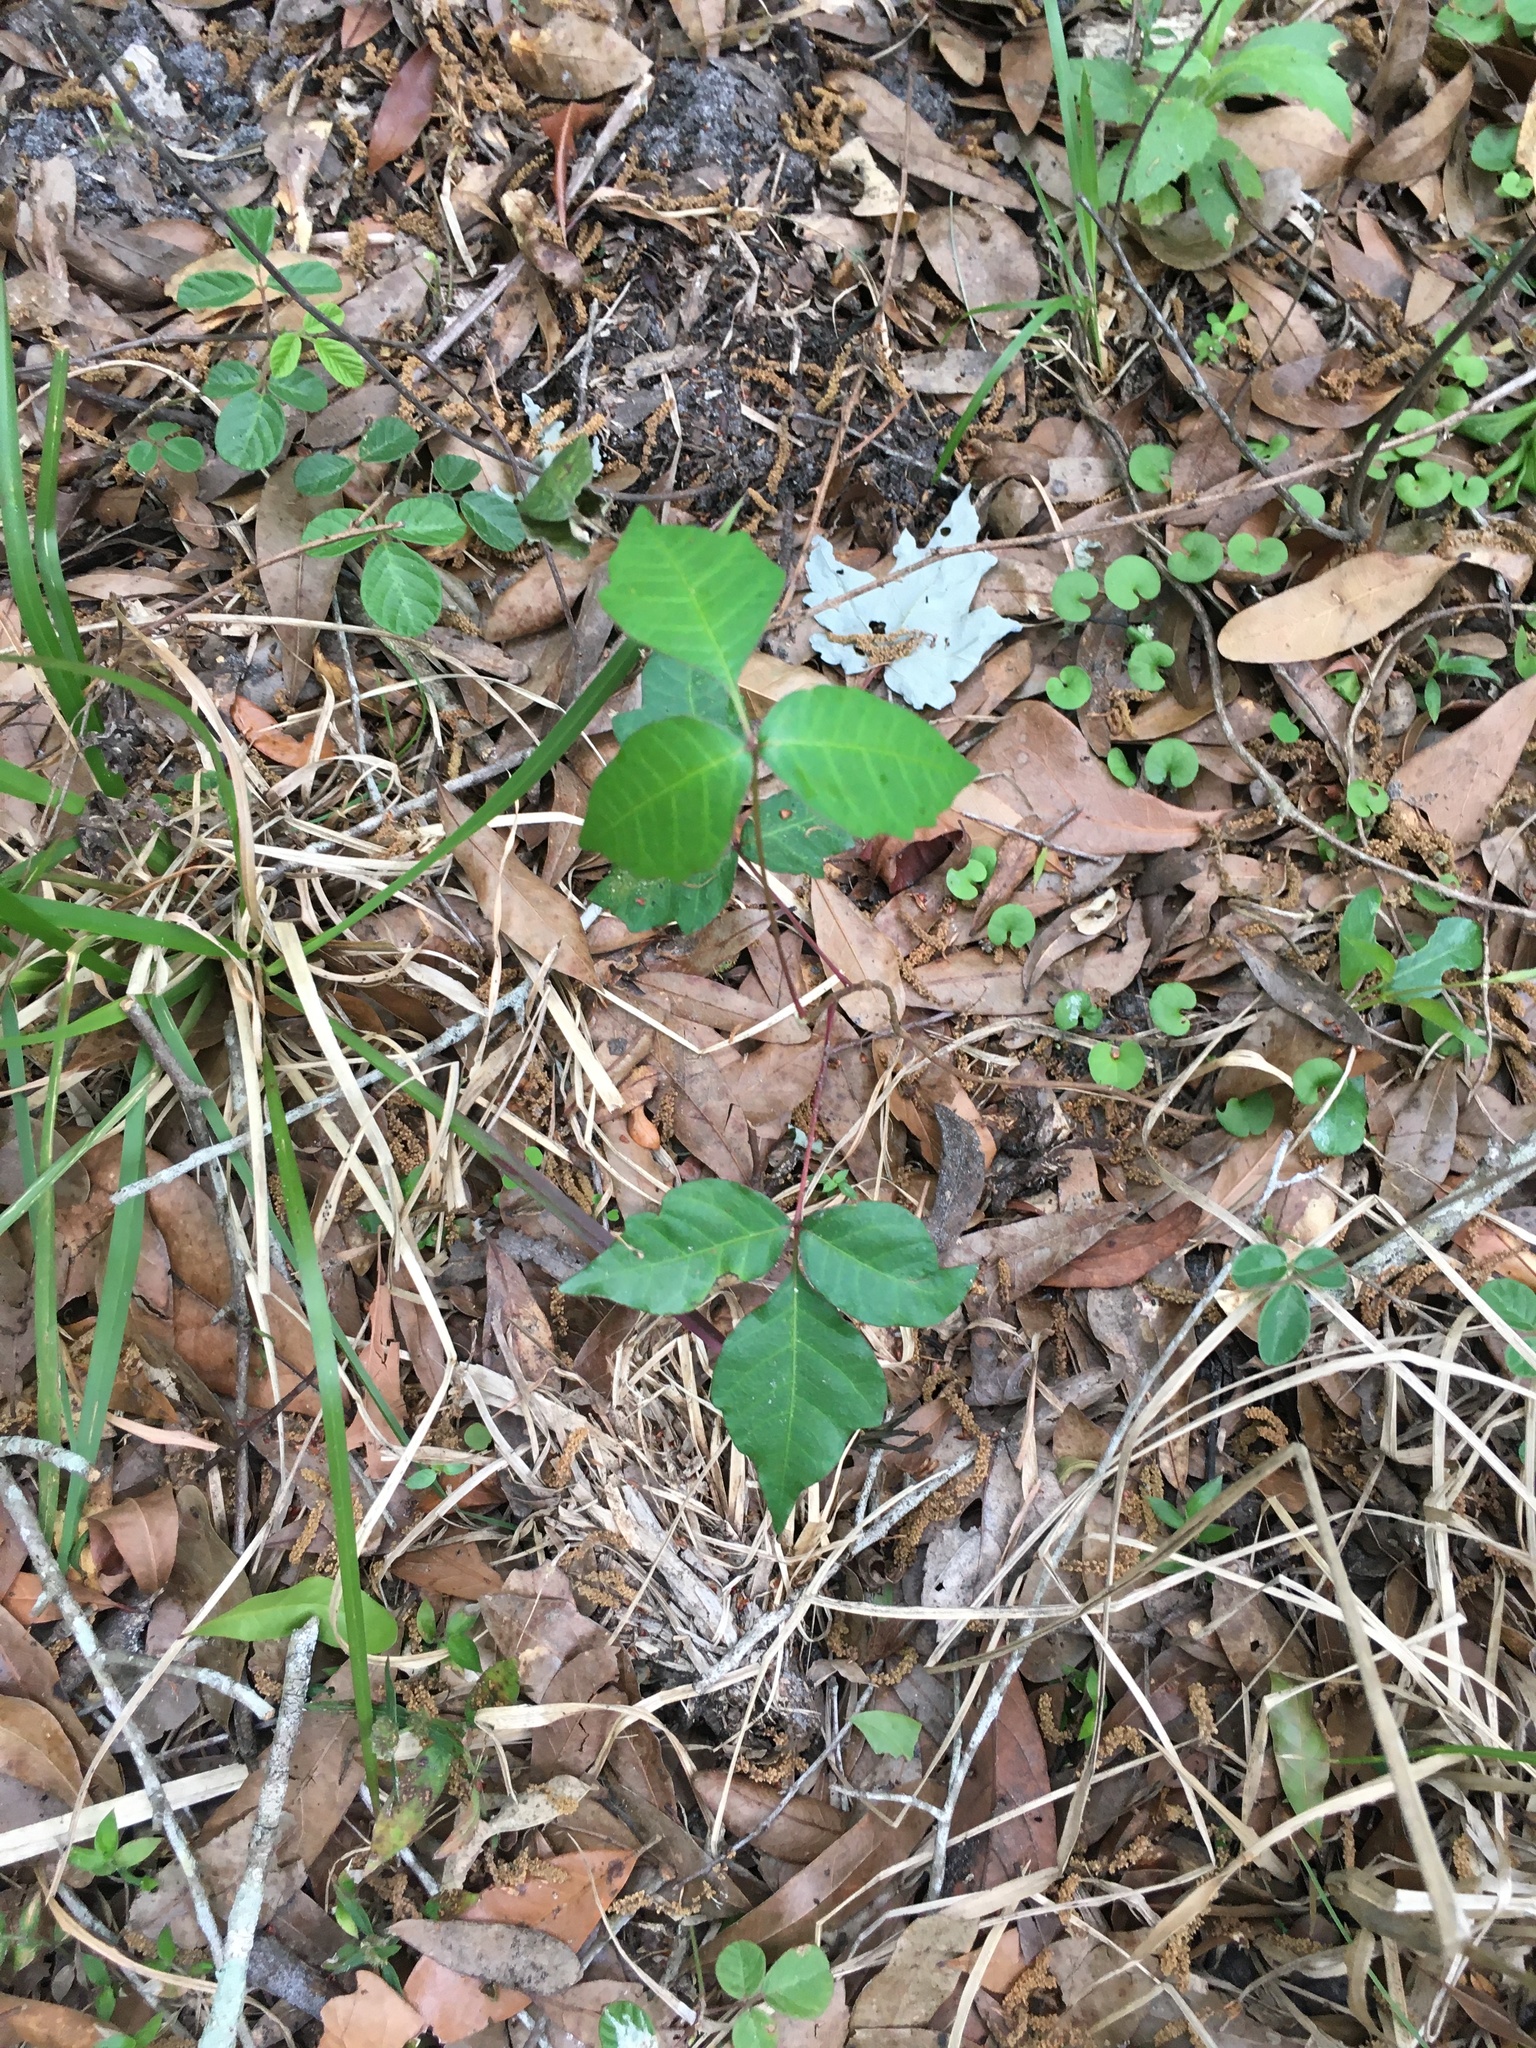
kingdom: Plantae
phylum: Tracheophyta
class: Magnoliopsida
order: Sapindales
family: Anacardiaceae
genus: Toxicodendron
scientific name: Toxicodendron radicans
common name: Poison ivy
